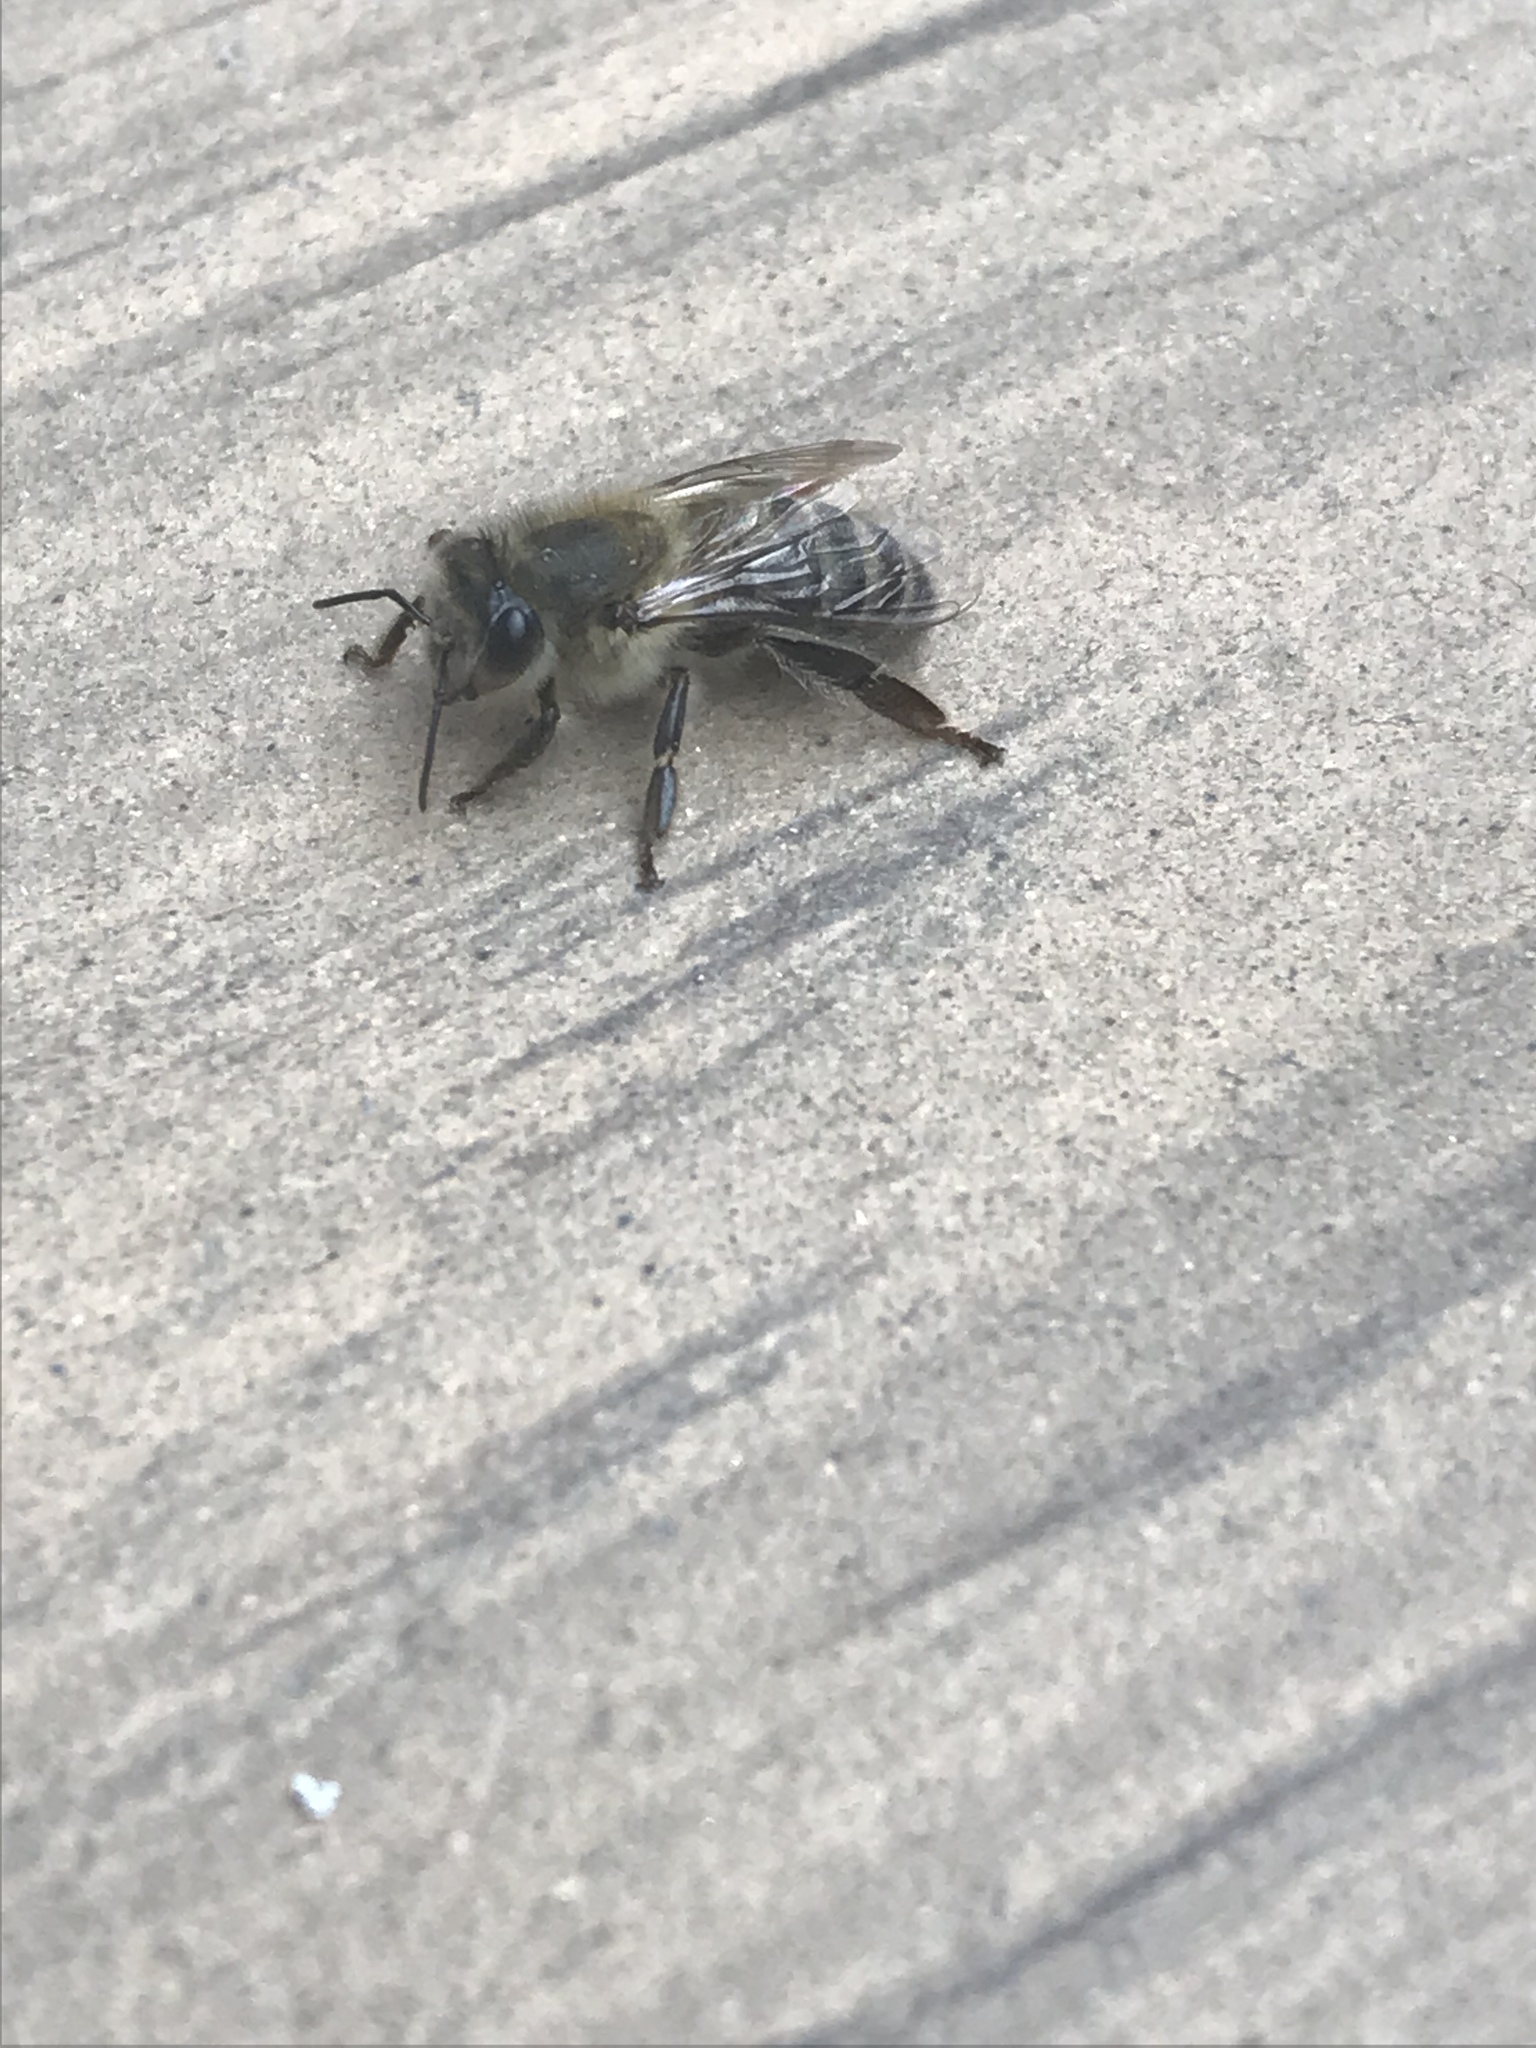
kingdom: Animalia
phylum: Arthropoda
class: Insecta
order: Hymenoptera
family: Apidae
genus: Apis
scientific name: Apis mellifera
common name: Honey bee
